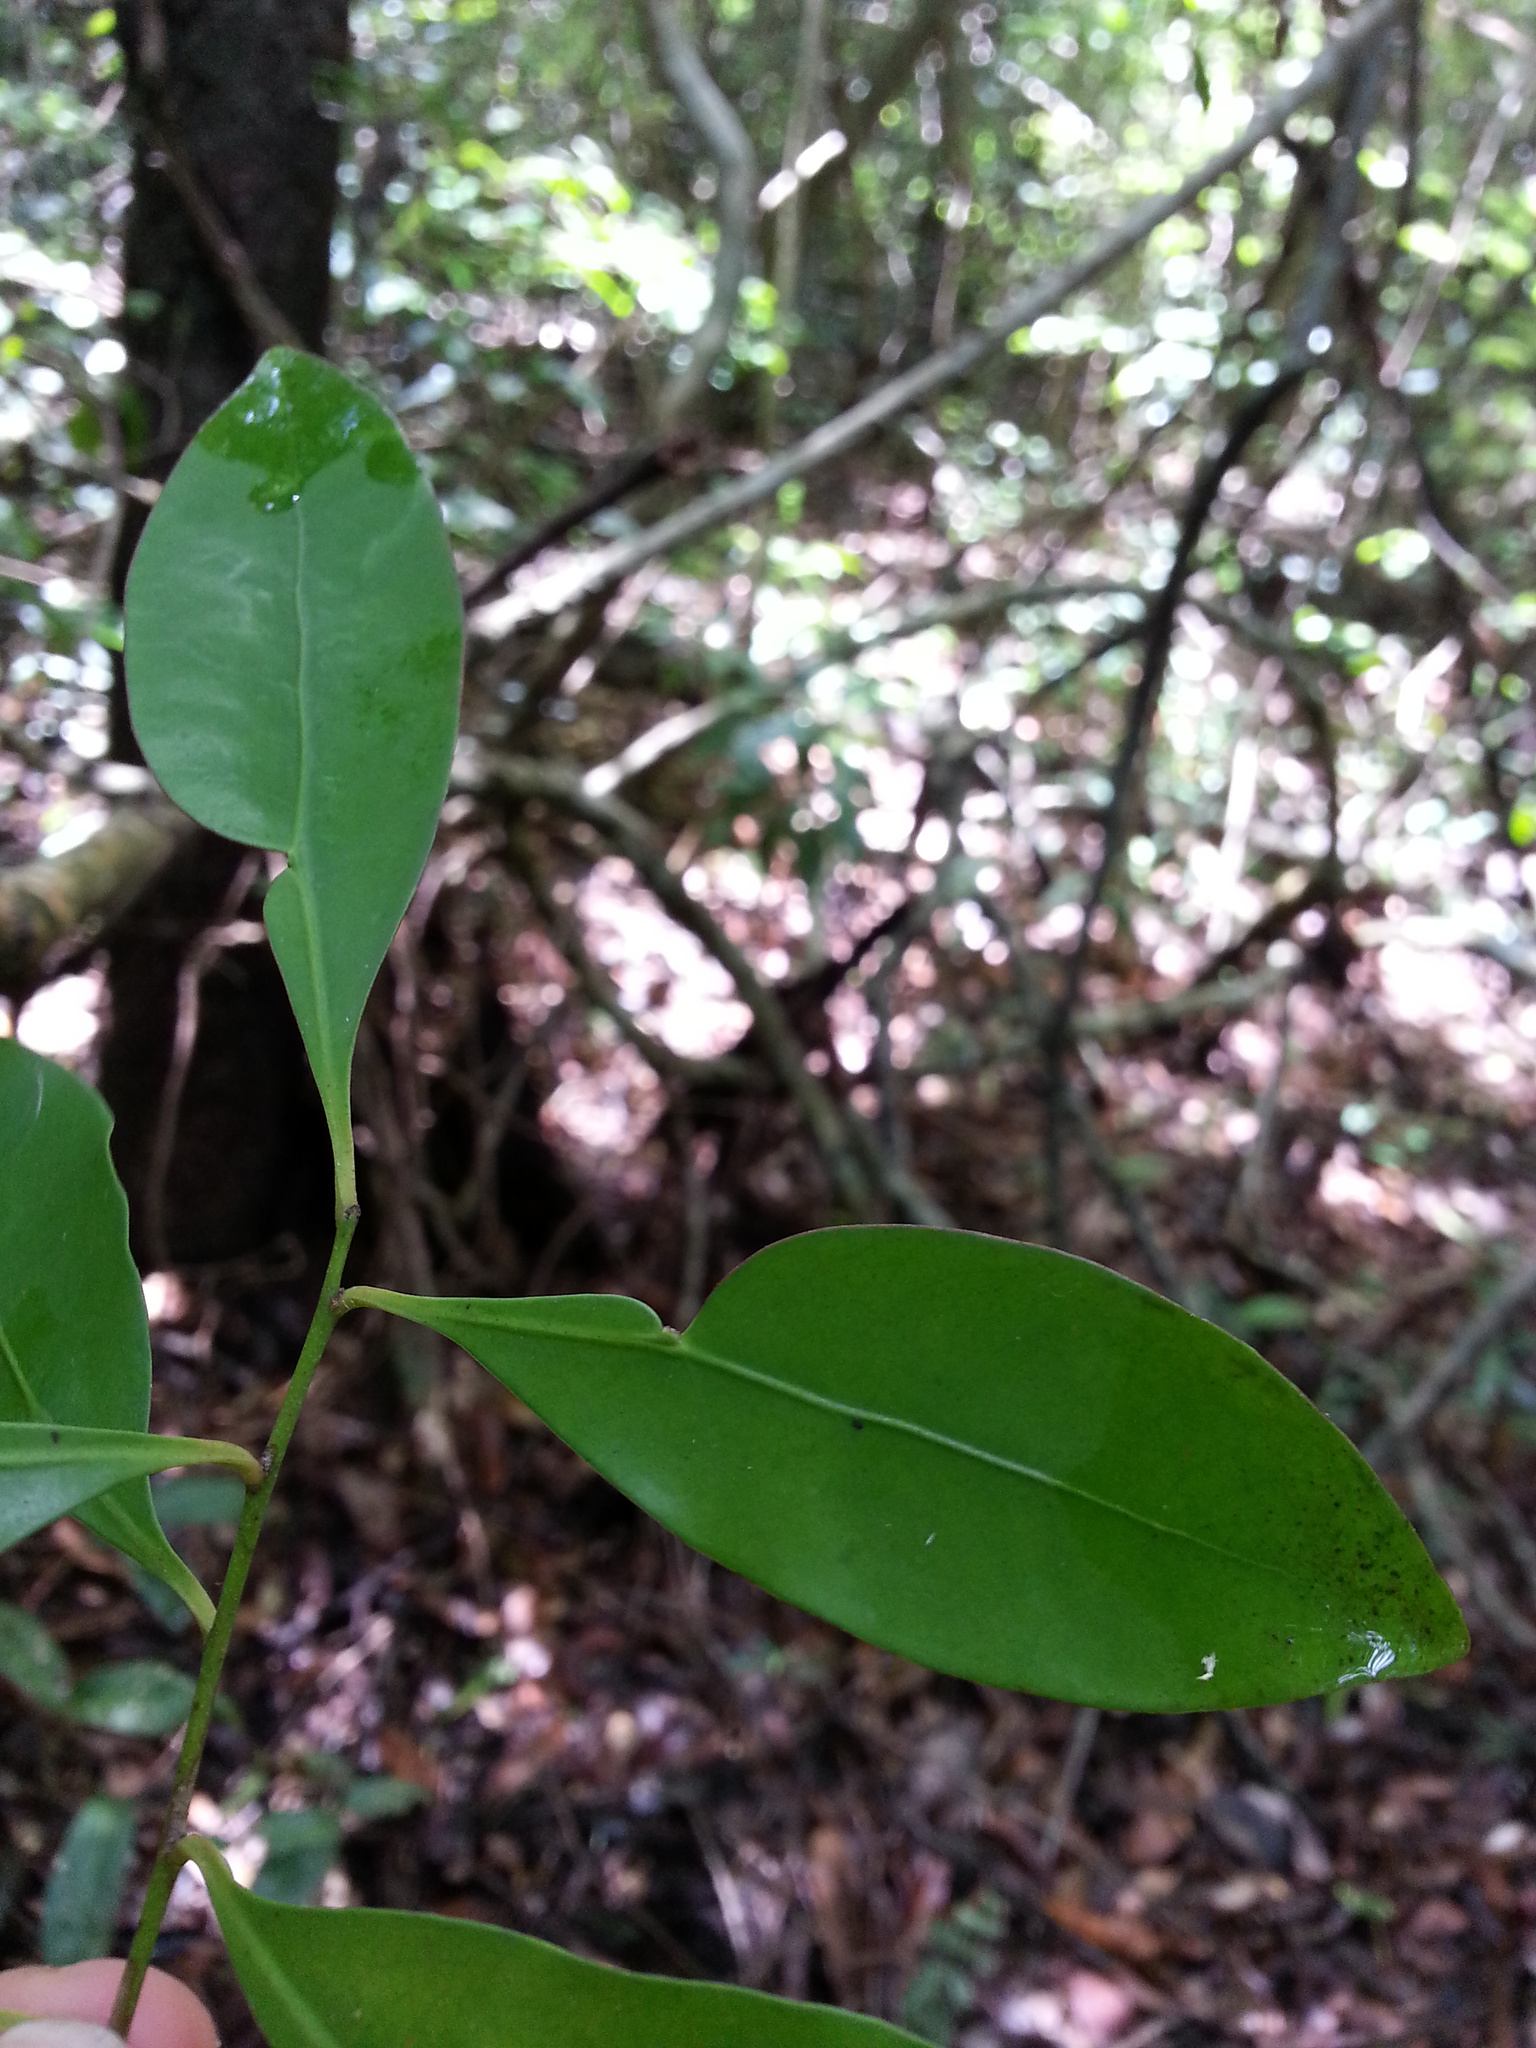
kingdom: Plantae
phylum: Tracheophyta
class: Magnoliopsida
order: Celastrales
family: Celastraceae
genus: Polycardia
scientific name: Polycardia lateralis
